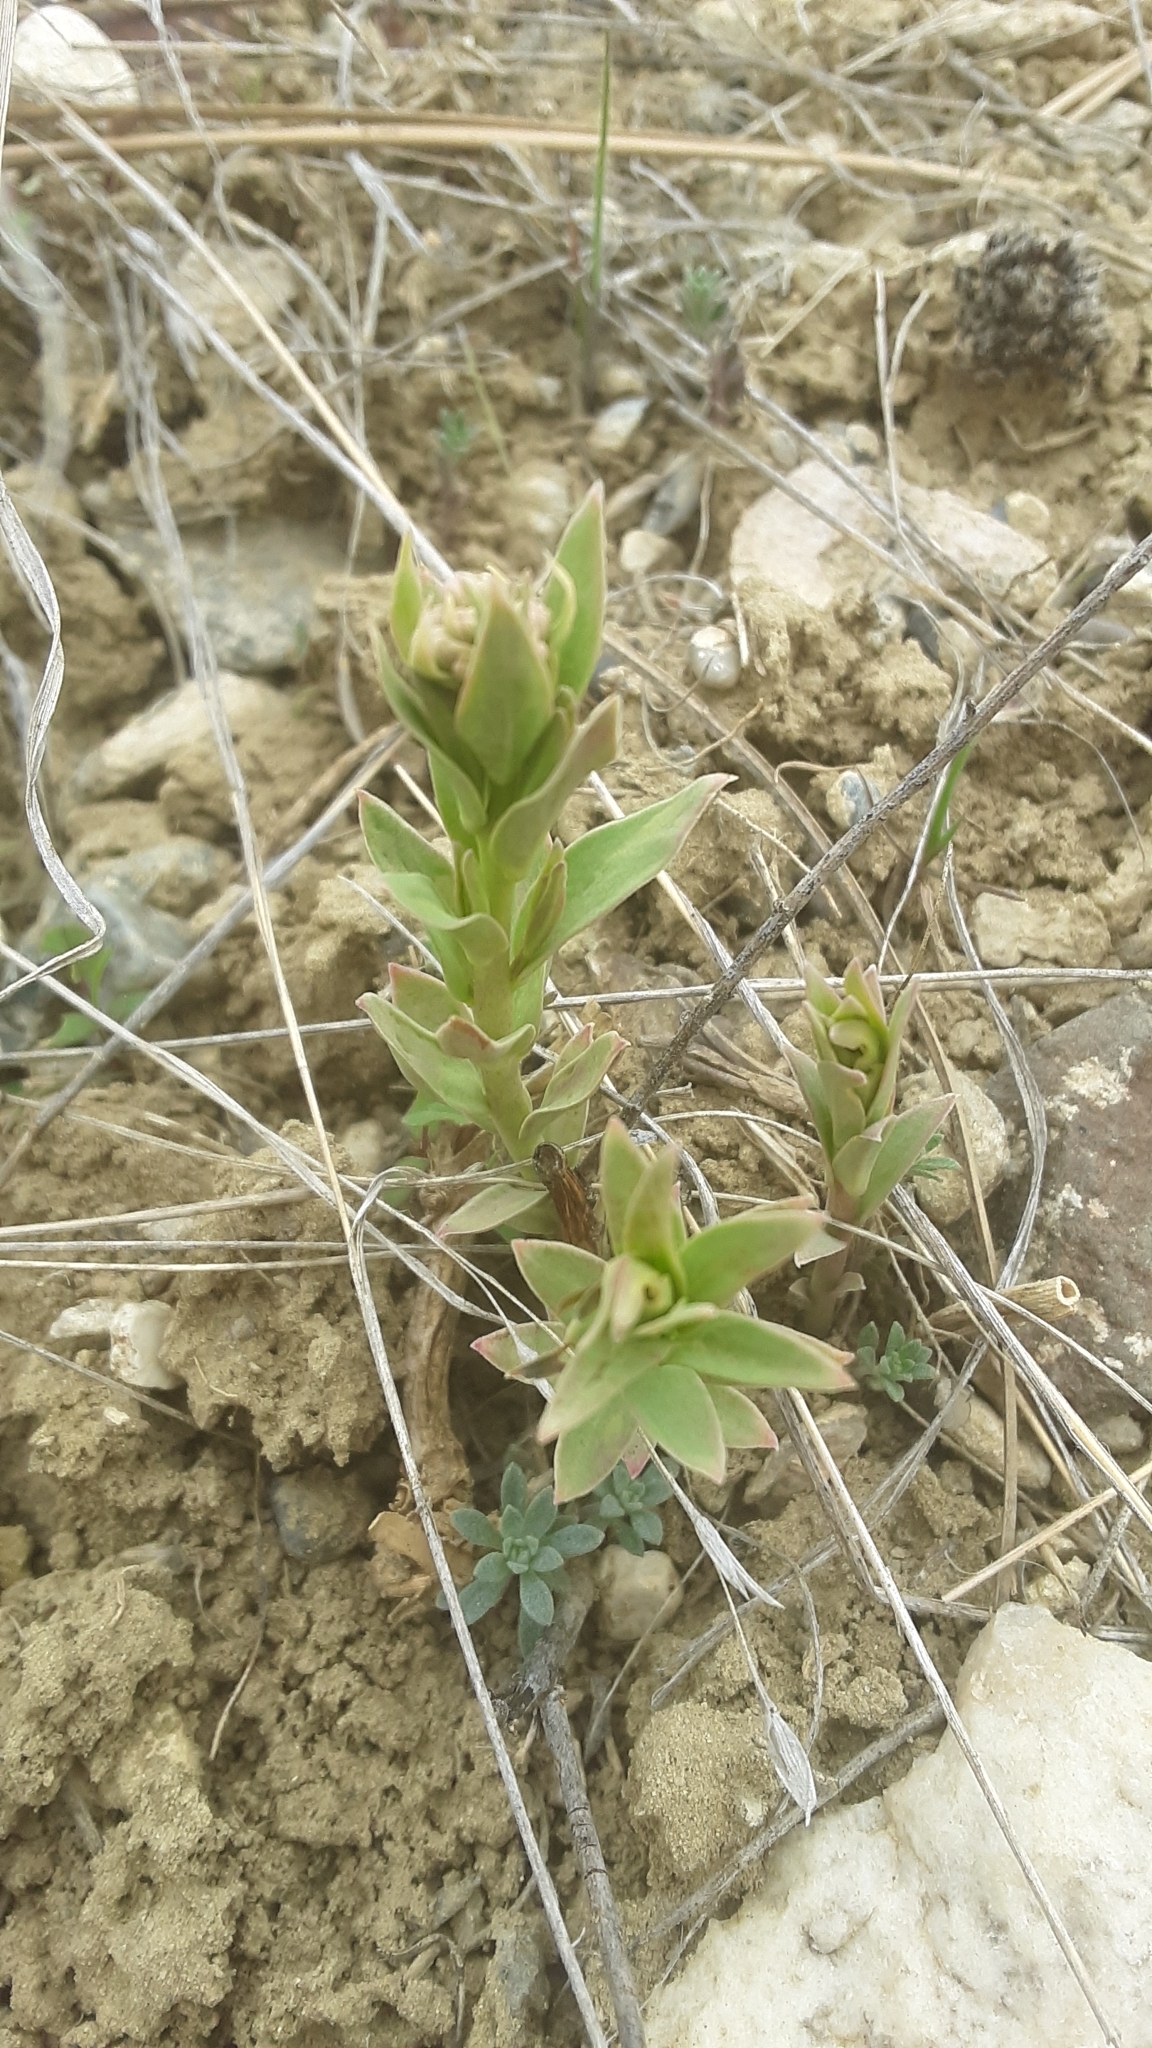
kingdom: Plantae
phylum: Tracheophyta
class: Magnoliopsida
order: Santalales
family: Comandraceae
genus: Comandra
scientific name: Comandra umbellata
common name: Bastard toadflax
